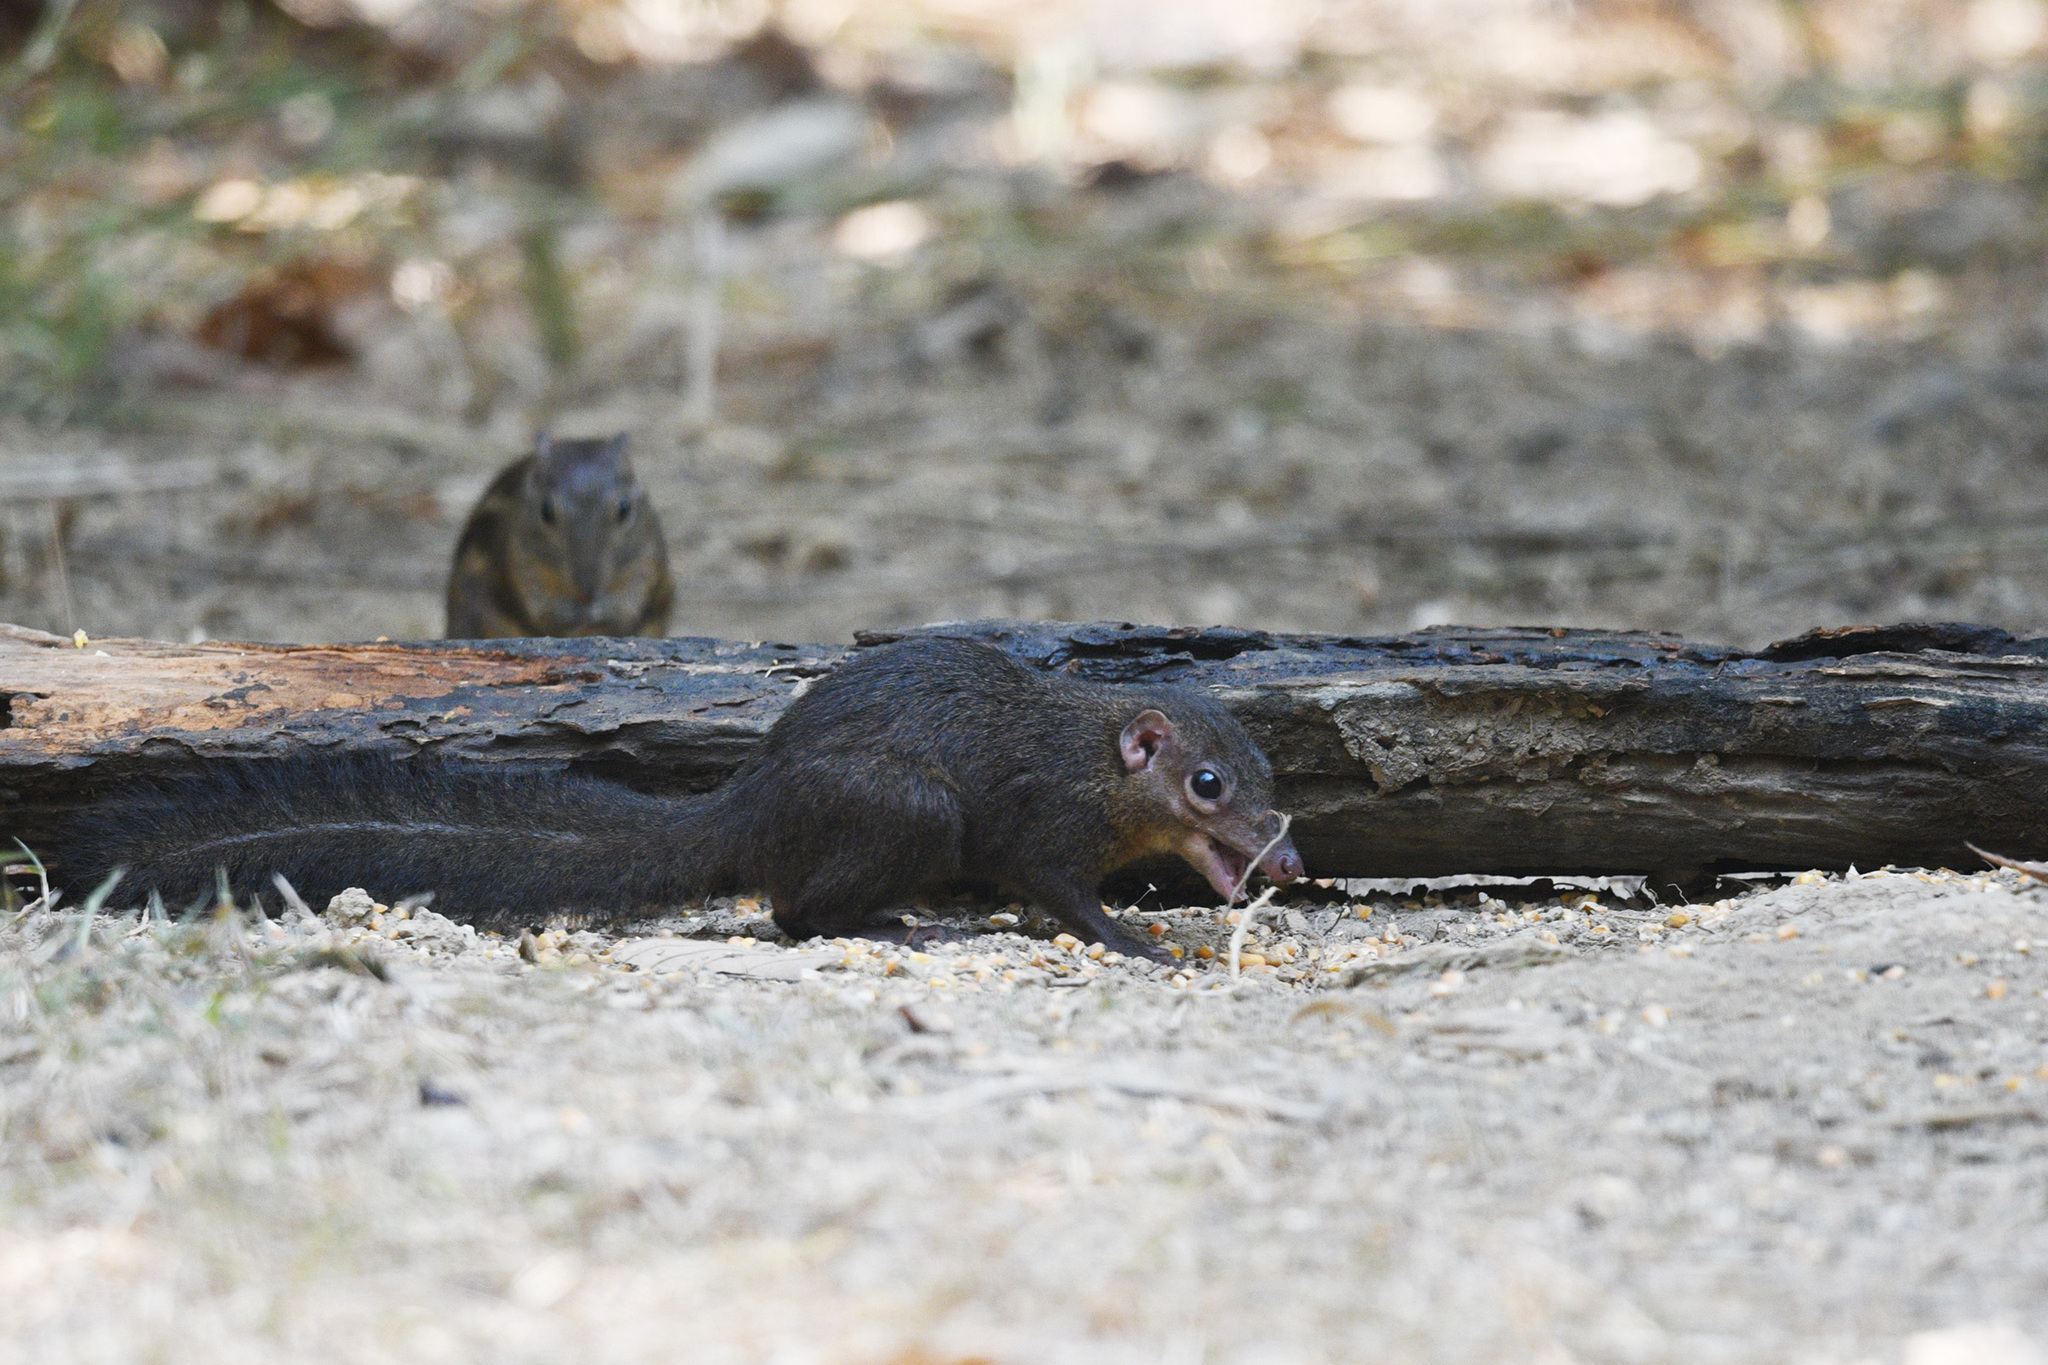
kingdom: Animalia
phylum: Chordata
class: Mammalia
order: Scandentia
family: Tupaiidae
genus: Tupaia
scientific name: Tupaia belangeri
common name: Northern treeshrew
